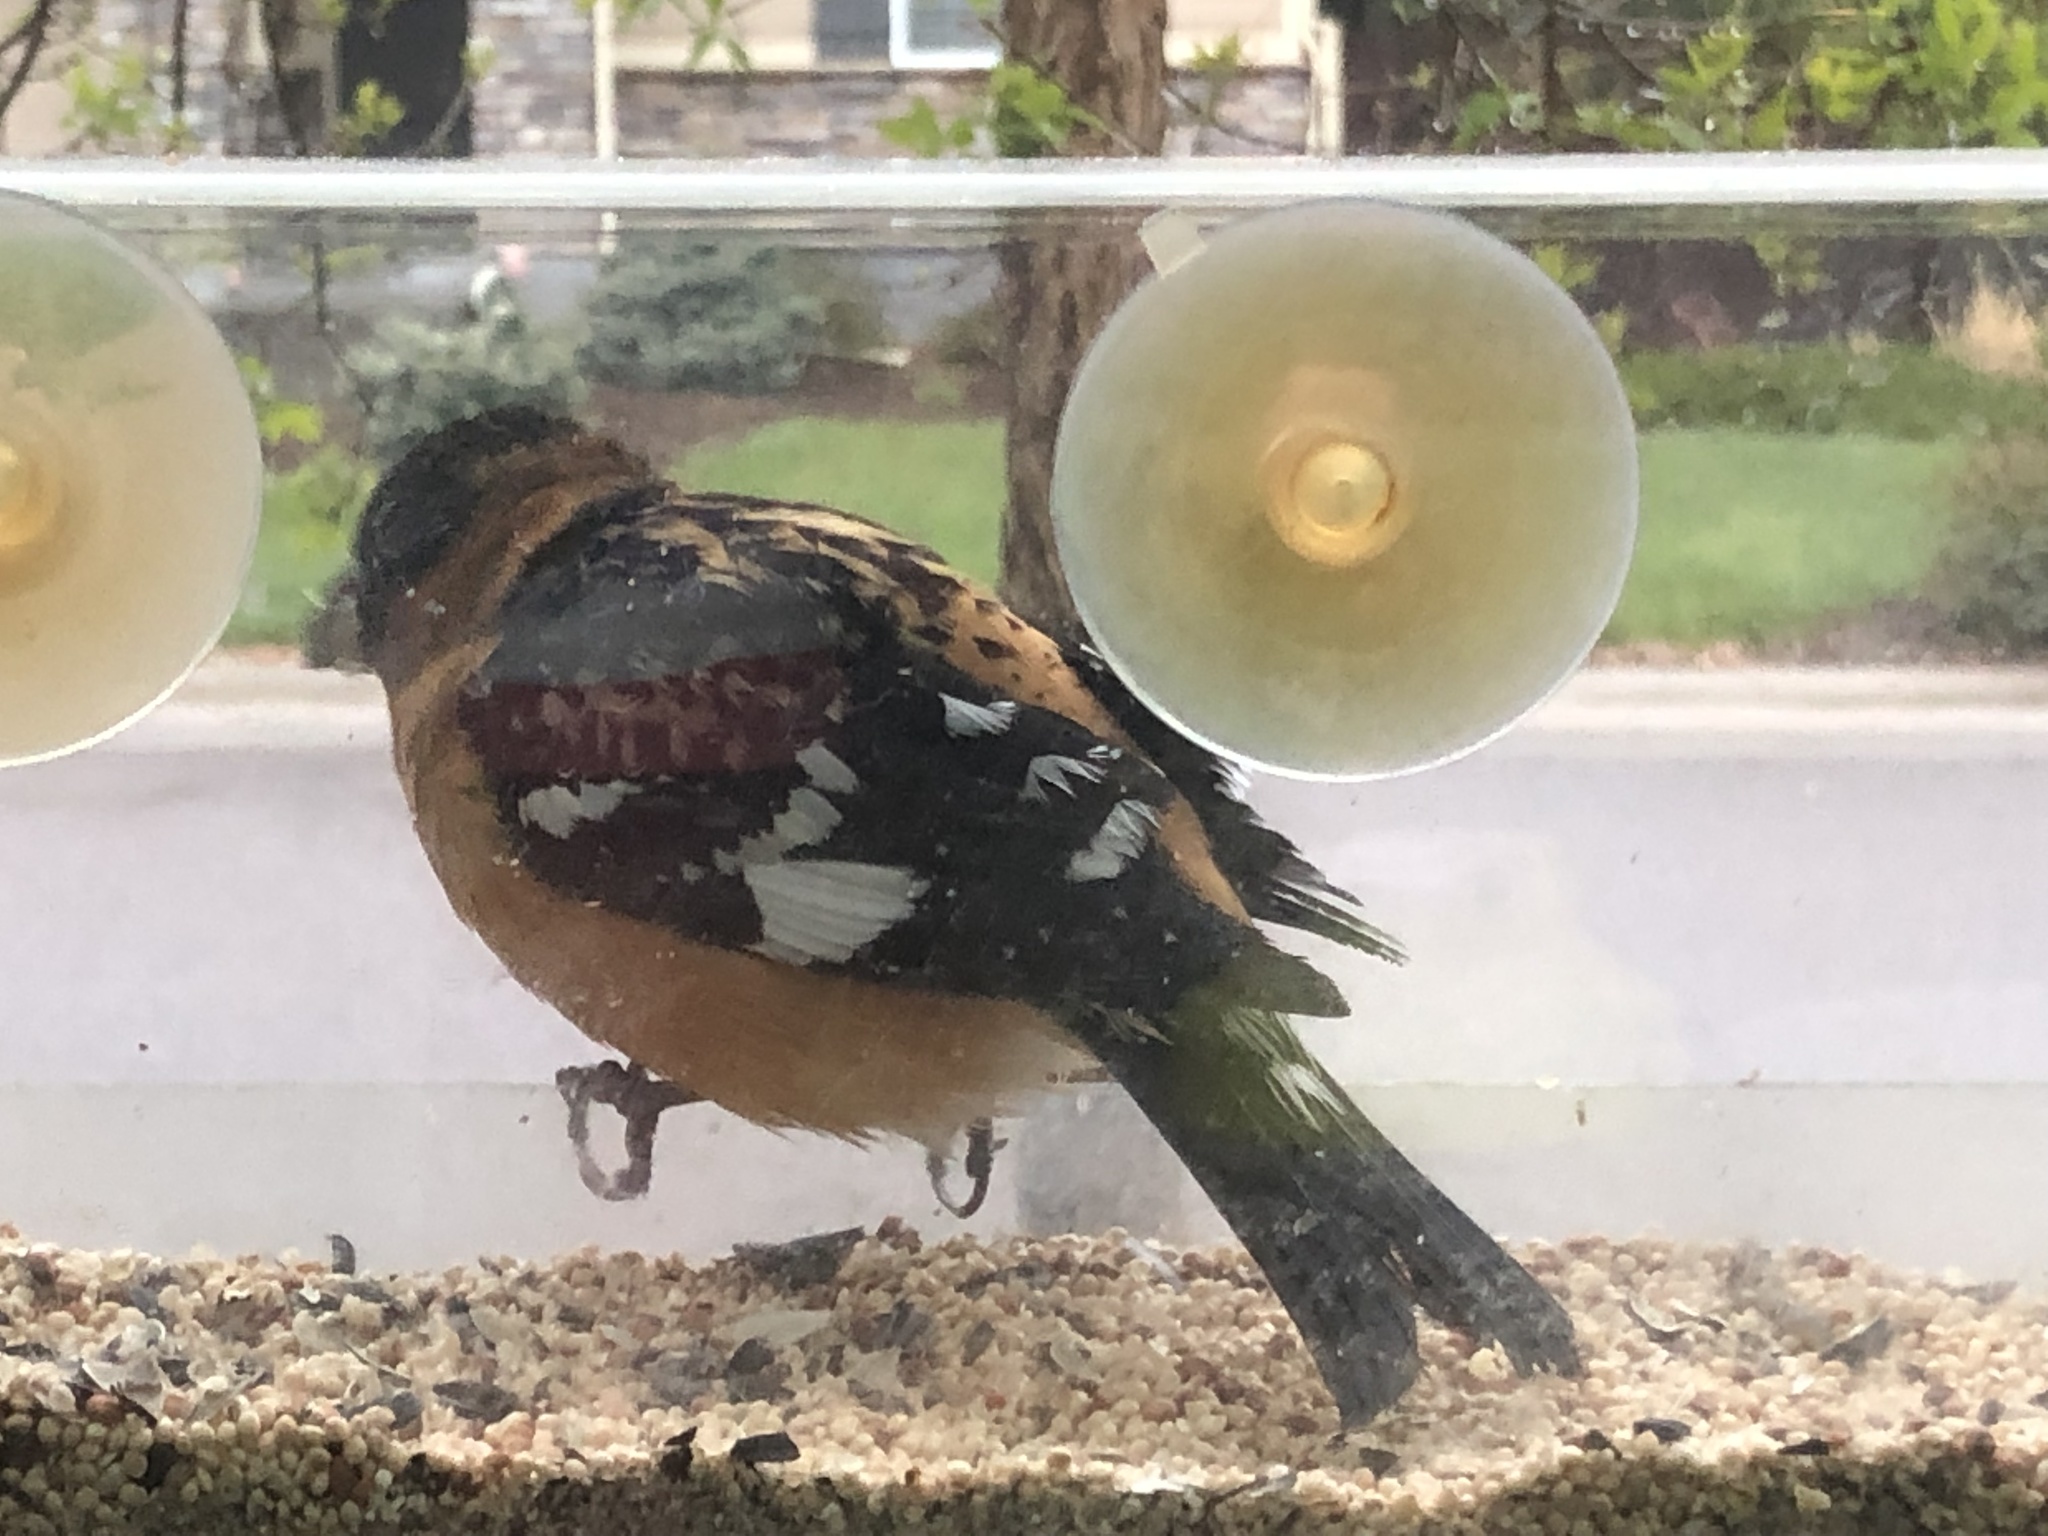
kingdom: Animalia
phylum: Chordata
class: Aves
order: Passeriformes
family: Cardinalidae
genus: Pheucticus
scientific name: Pheucticus melanocephalus
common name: Black-headed grosbeak
